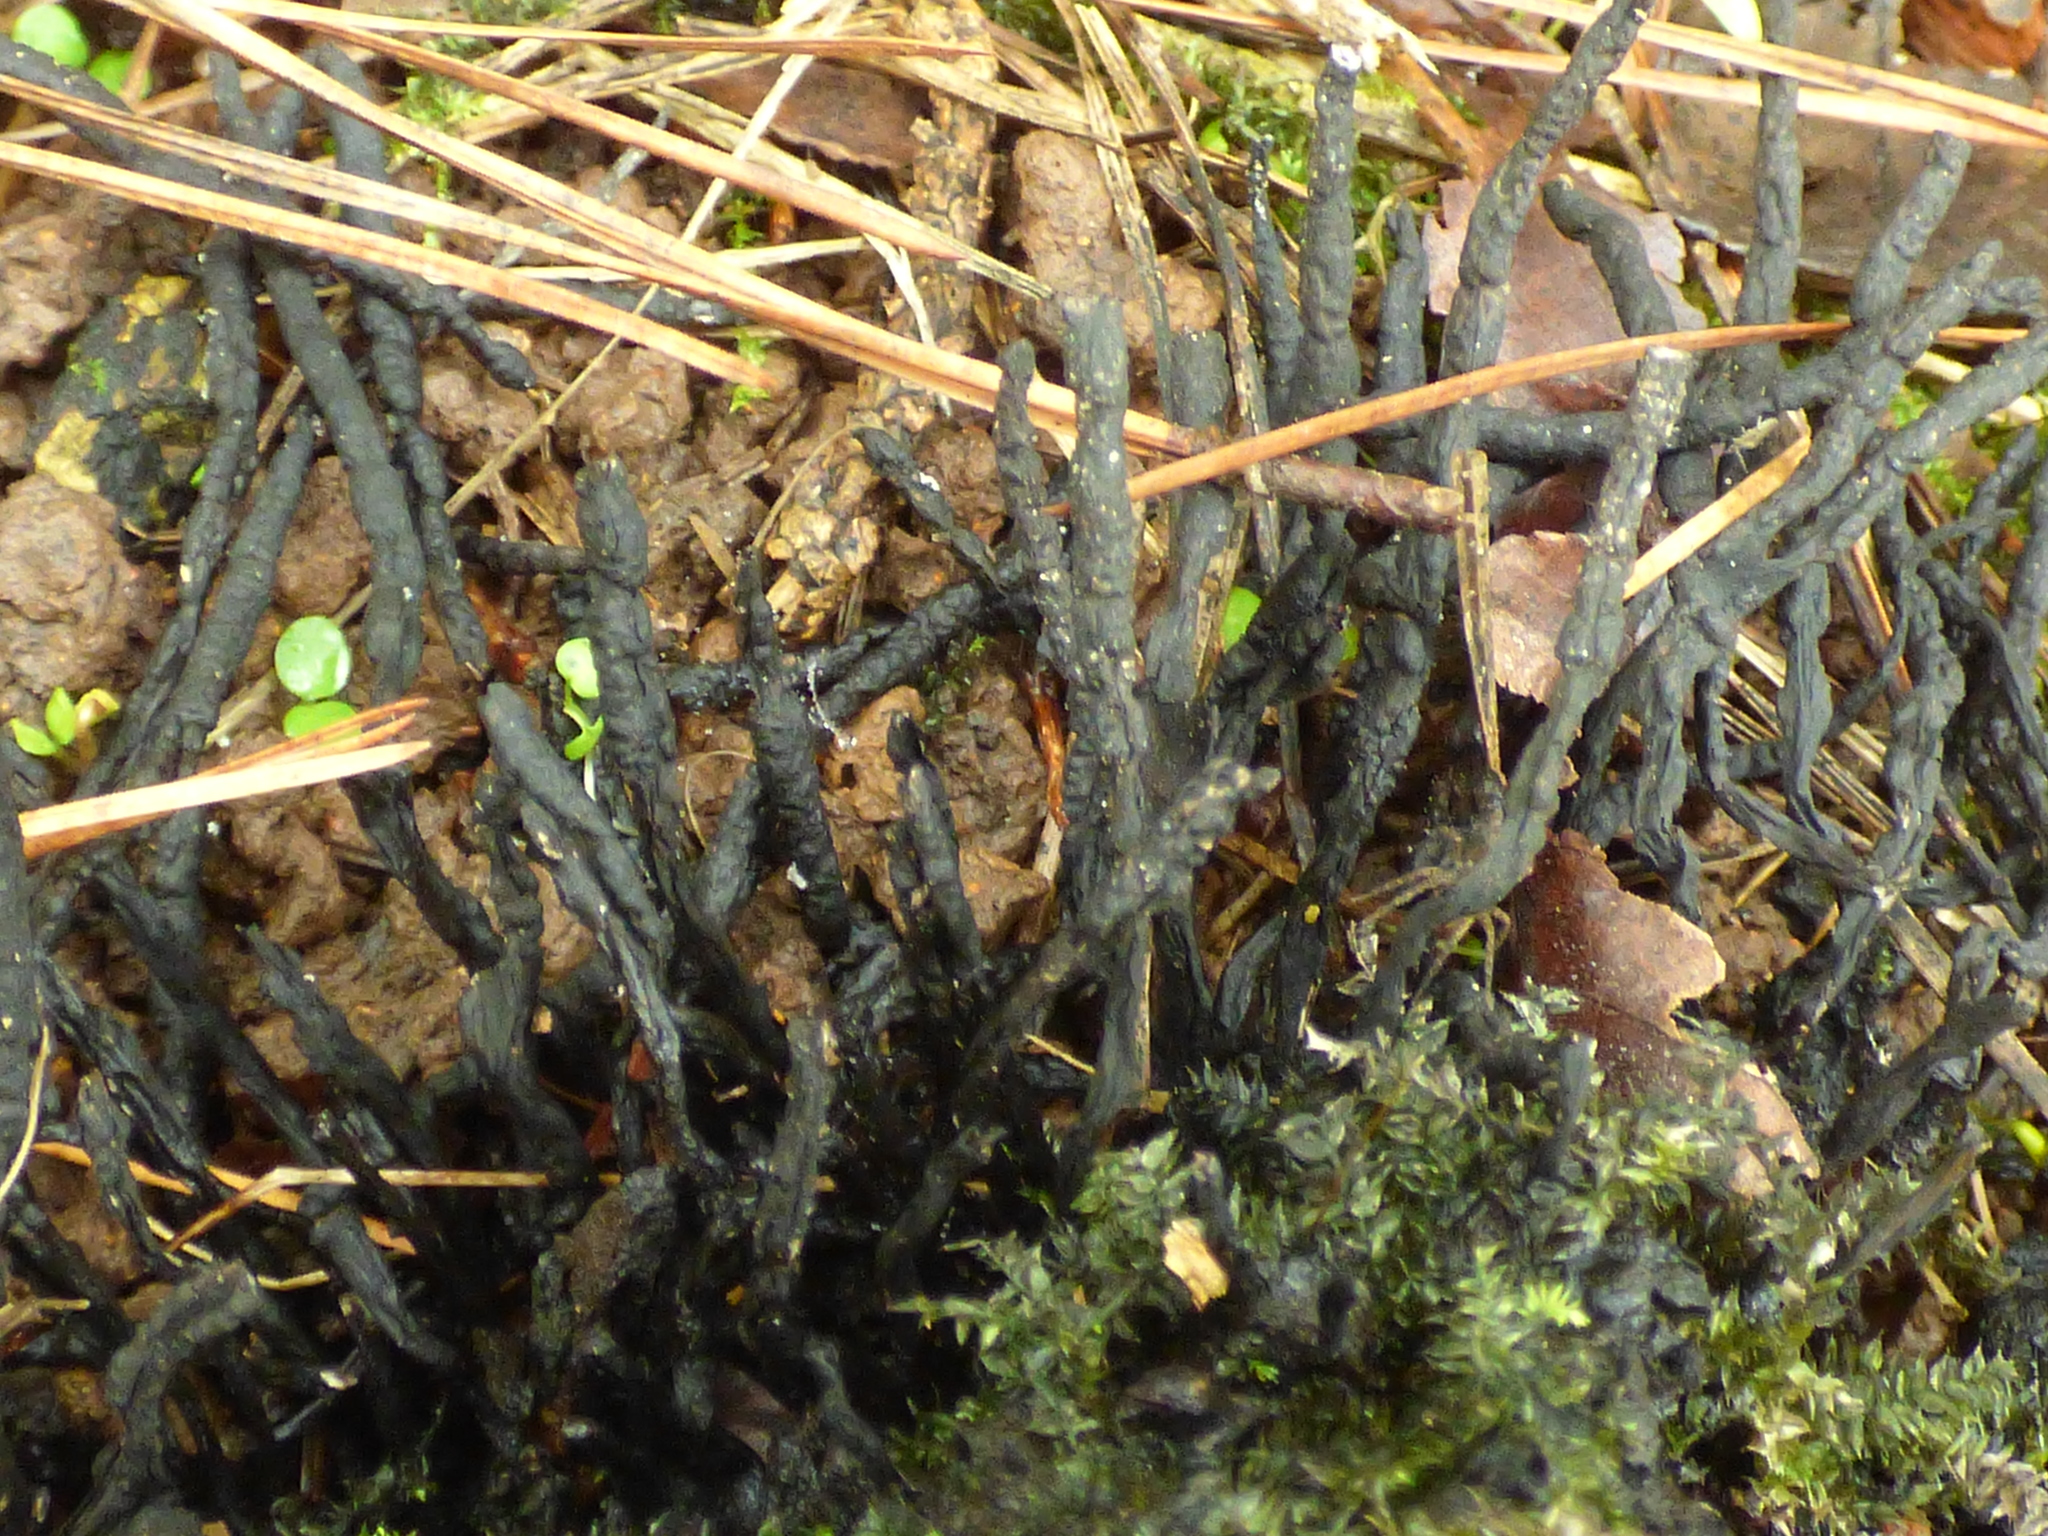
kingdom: Fungi
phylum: Ascomycota
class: Sordariomycetes
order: Xylariales
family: Xylariaceae
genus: Xylaria
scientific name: Xylaria hypoxylon
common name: Candle-snuff fungus
